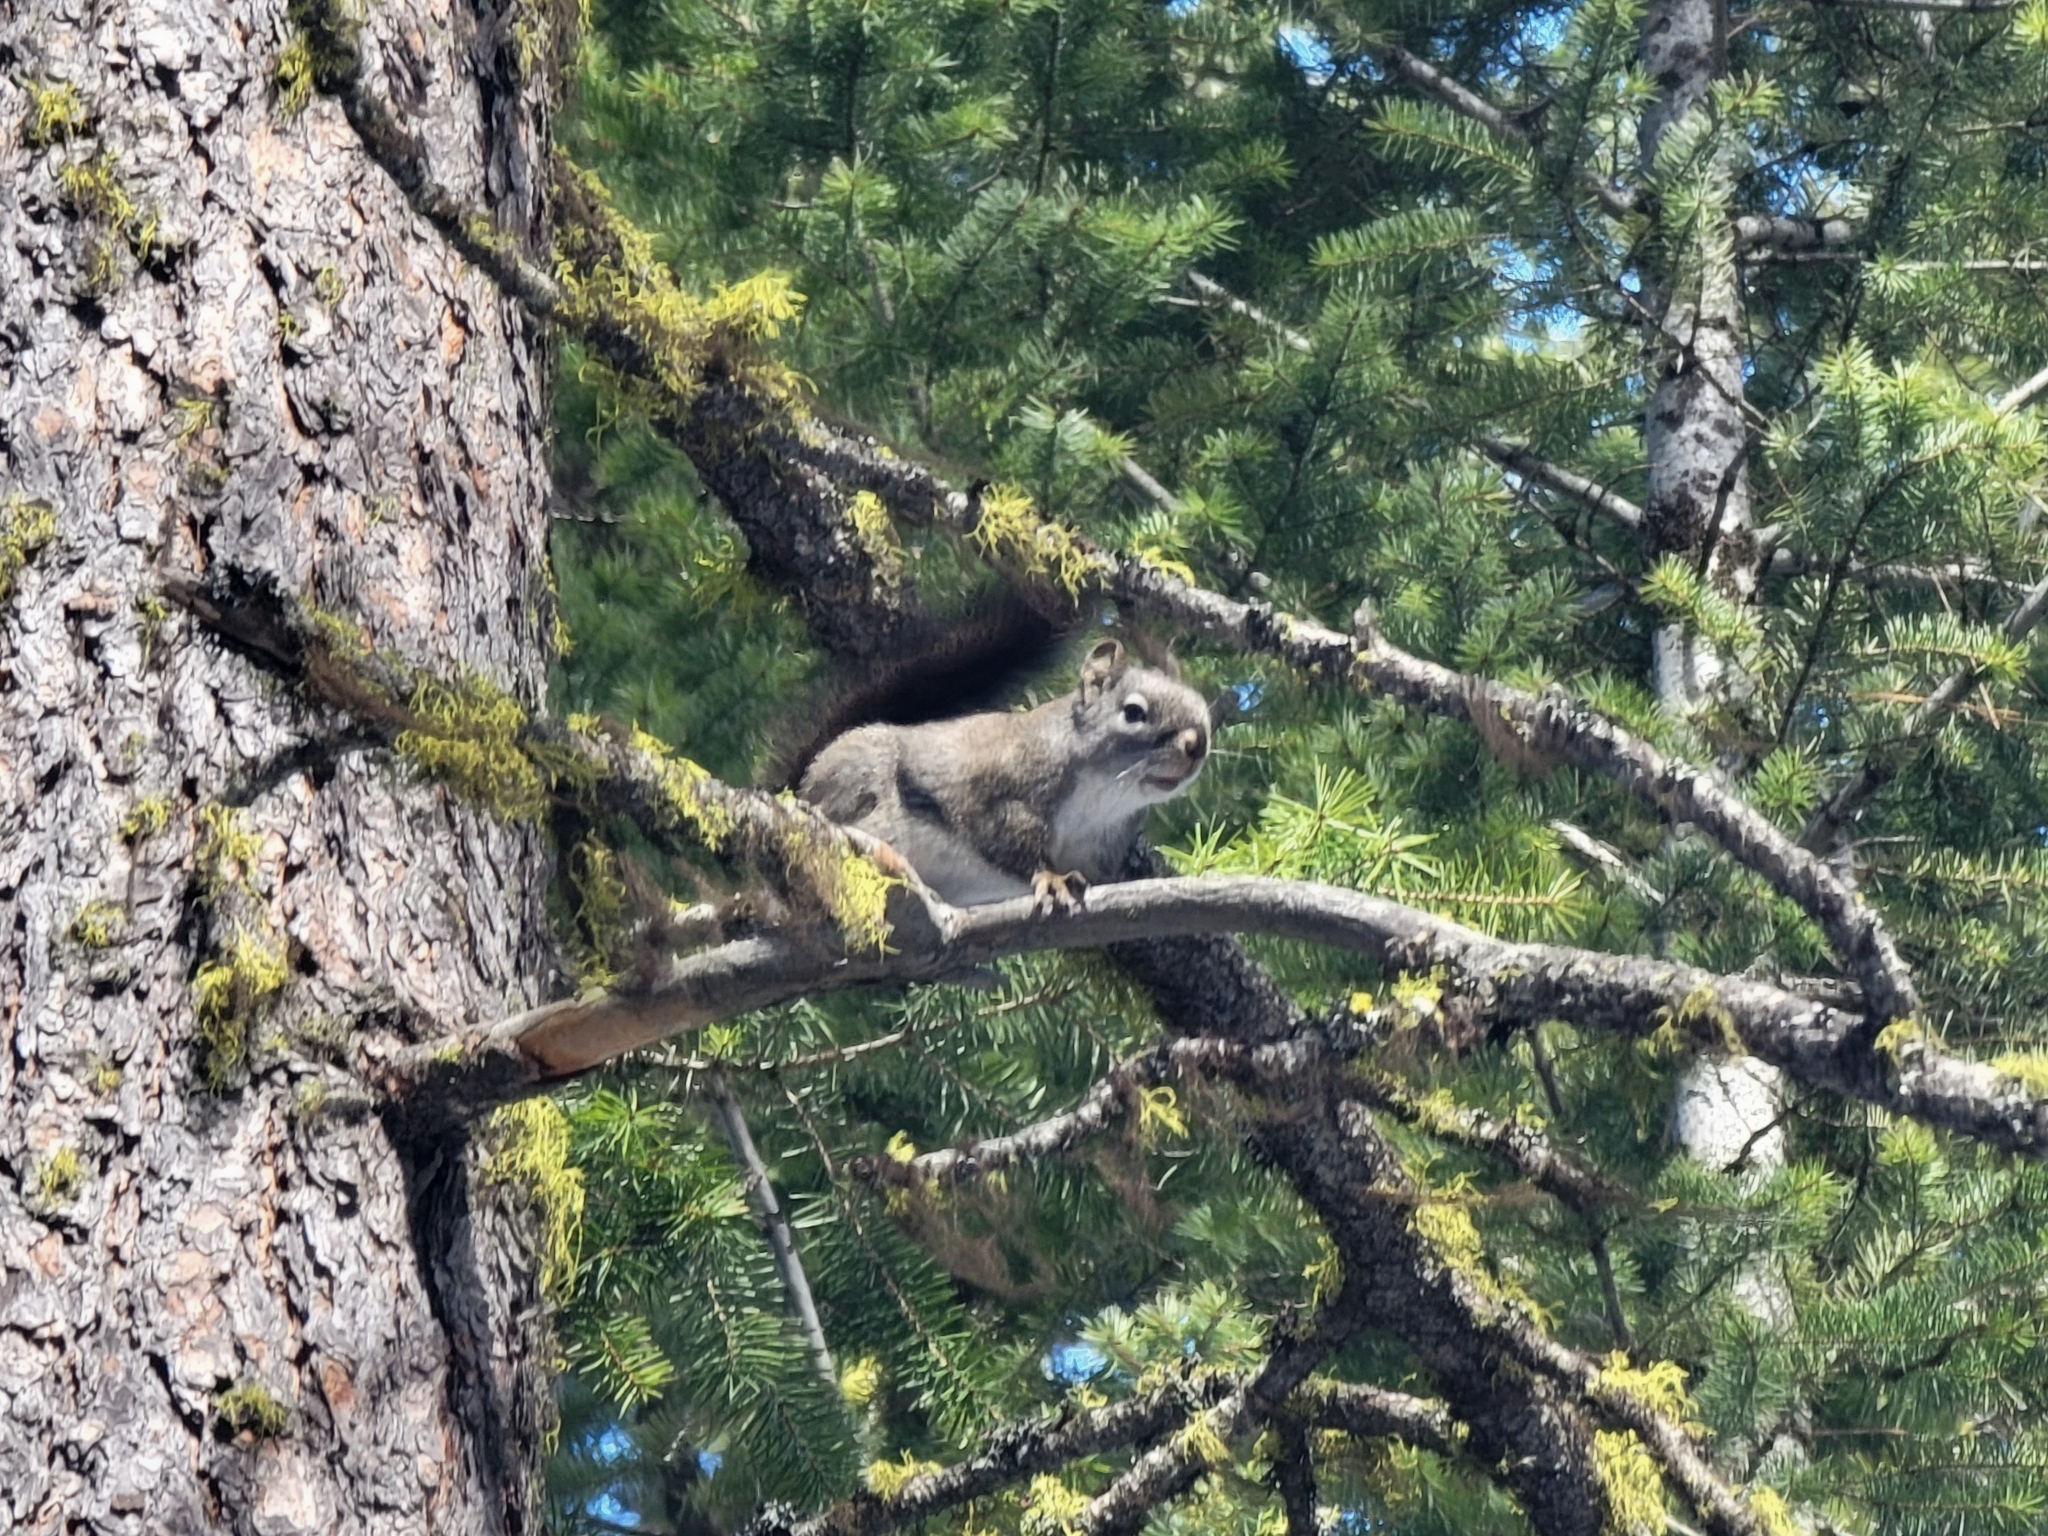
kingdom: Animalia
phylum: Chordata
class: Mammalia
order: Rodentia
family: Sciuridae
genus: Tamiasciurus
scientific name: Tamiasciurus hudsonicus
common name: Red squirrel
